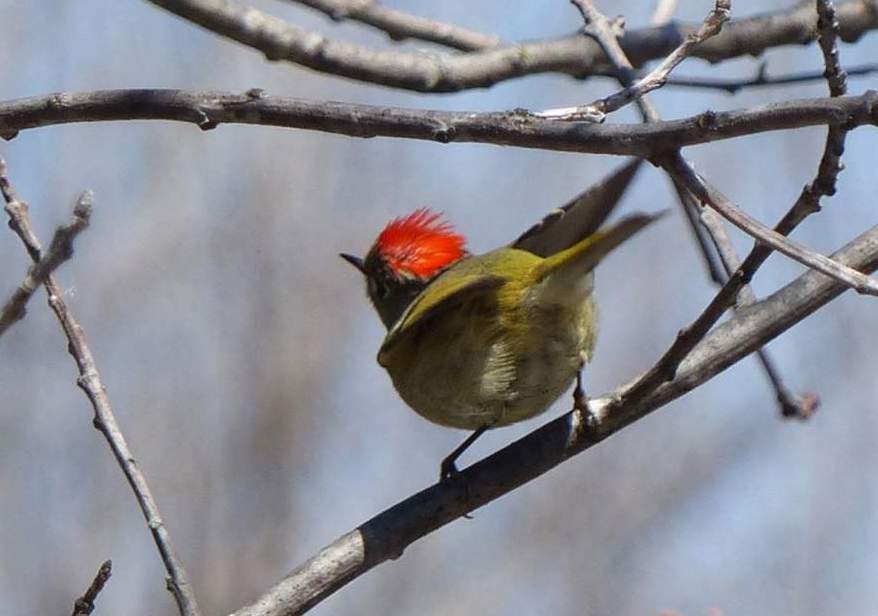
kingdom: Animalia
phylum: Chordata
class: Aves
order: Passeriformes
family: Regulidae
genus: Regulus
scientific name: Regulus calendula
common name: Ruby-crowned kinglet
